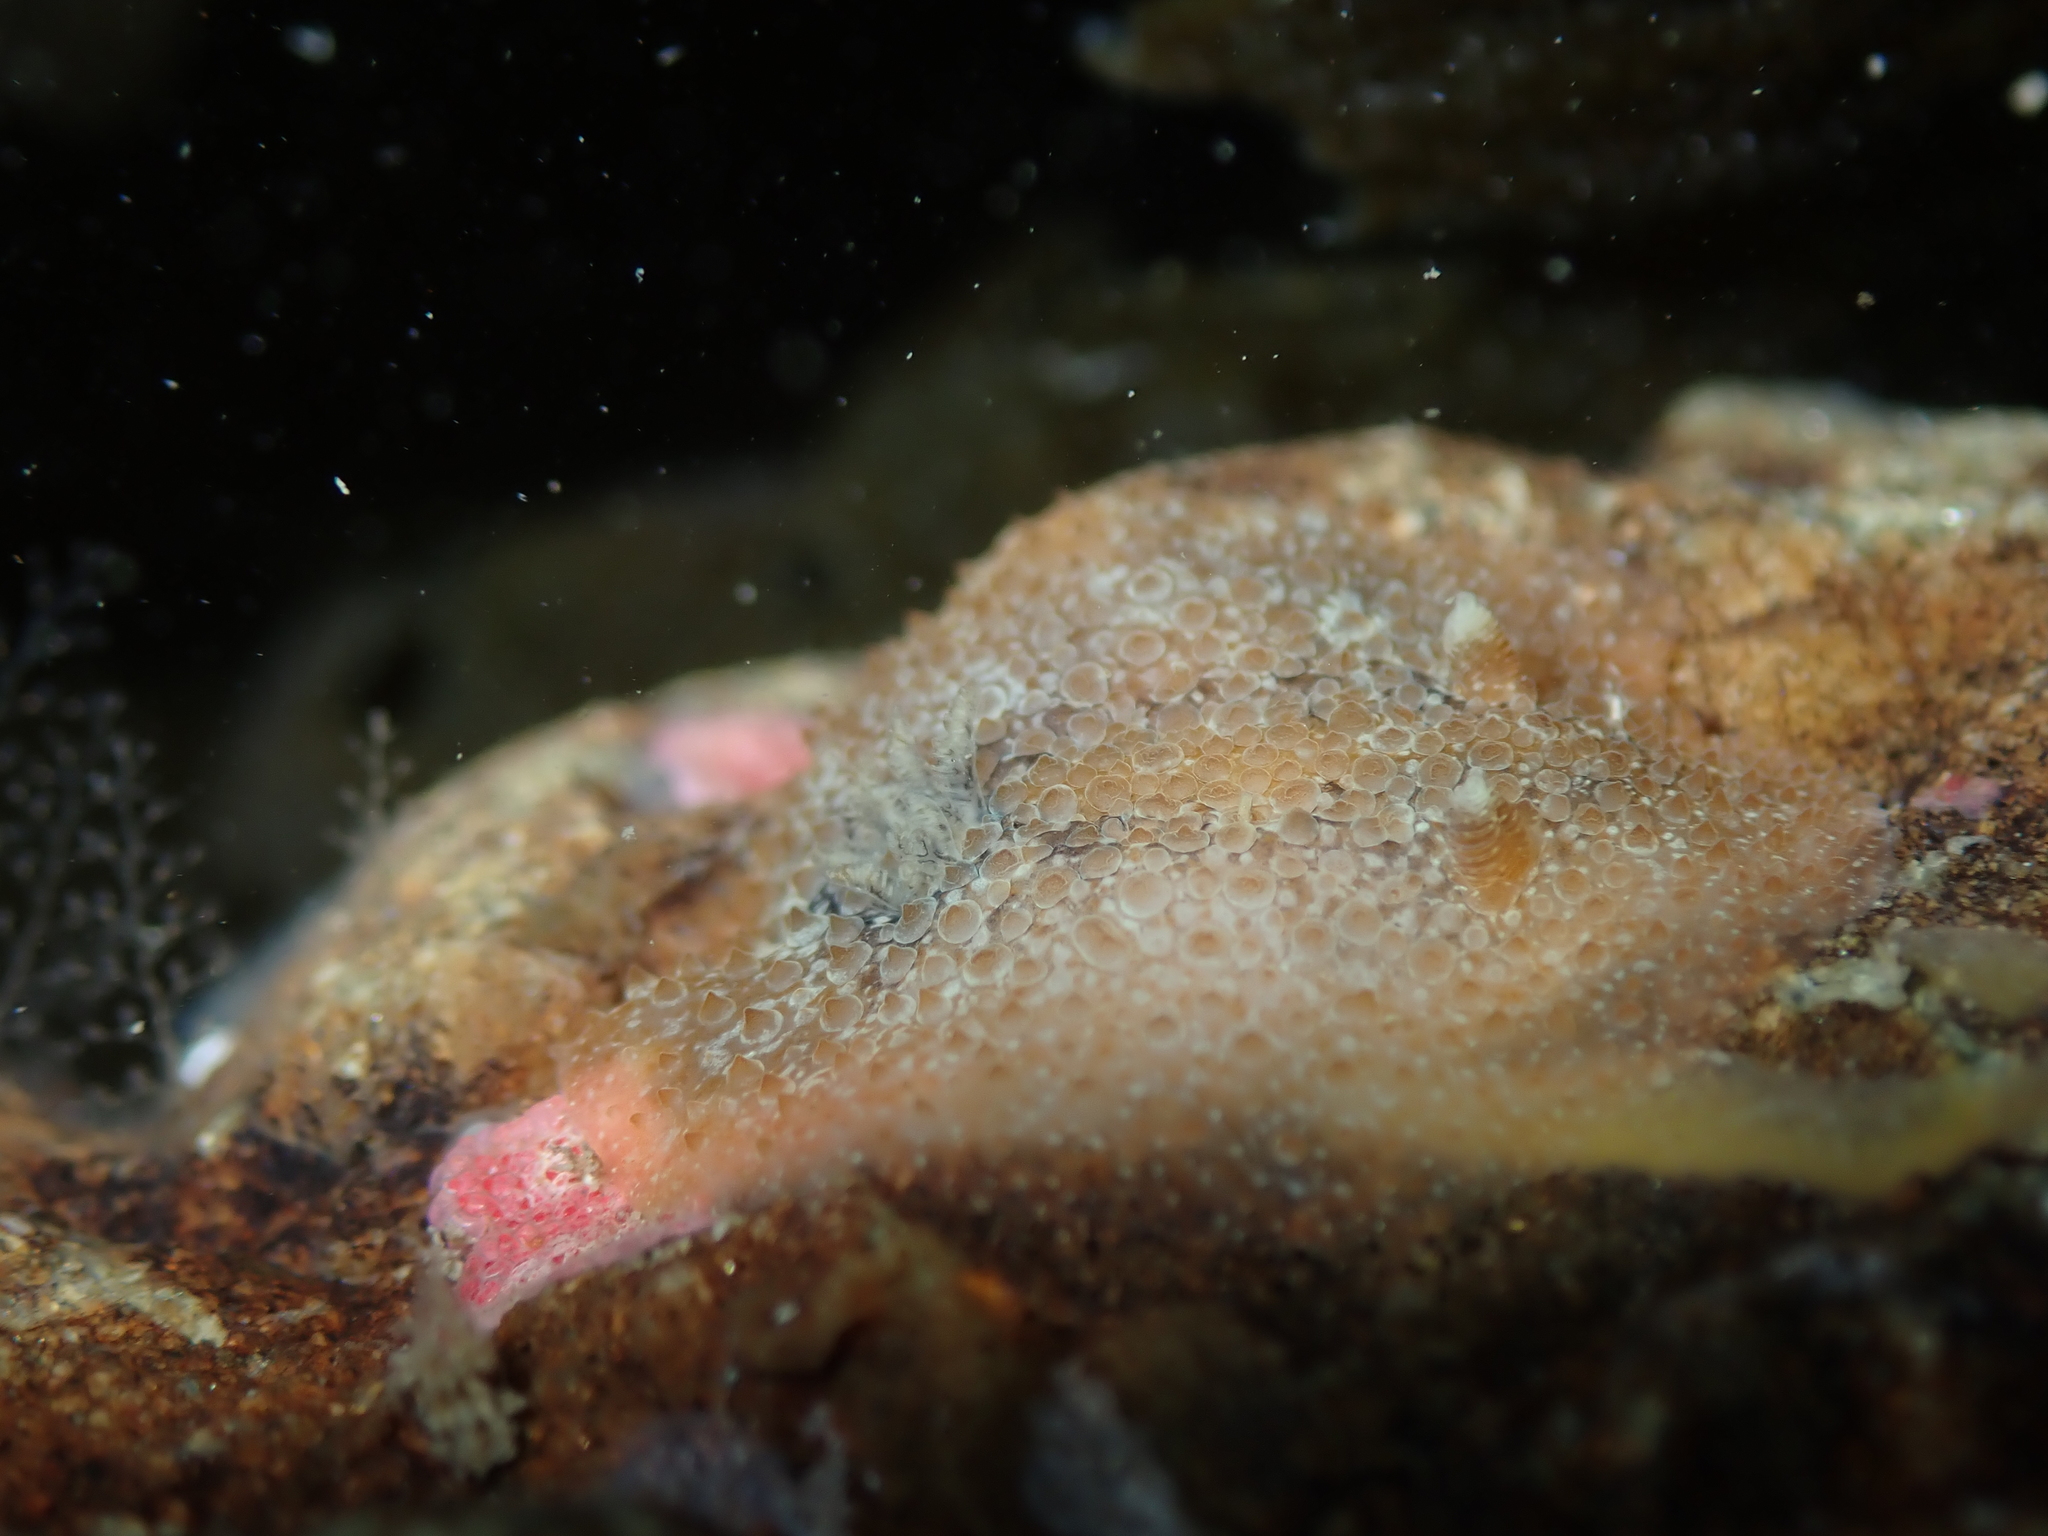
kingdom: Animalia
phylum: Mollusca
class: Gastropoda
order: Nudibranchia
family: Onchidorididae
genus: Acanthodoris
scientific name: Acanthodoris mollicella
